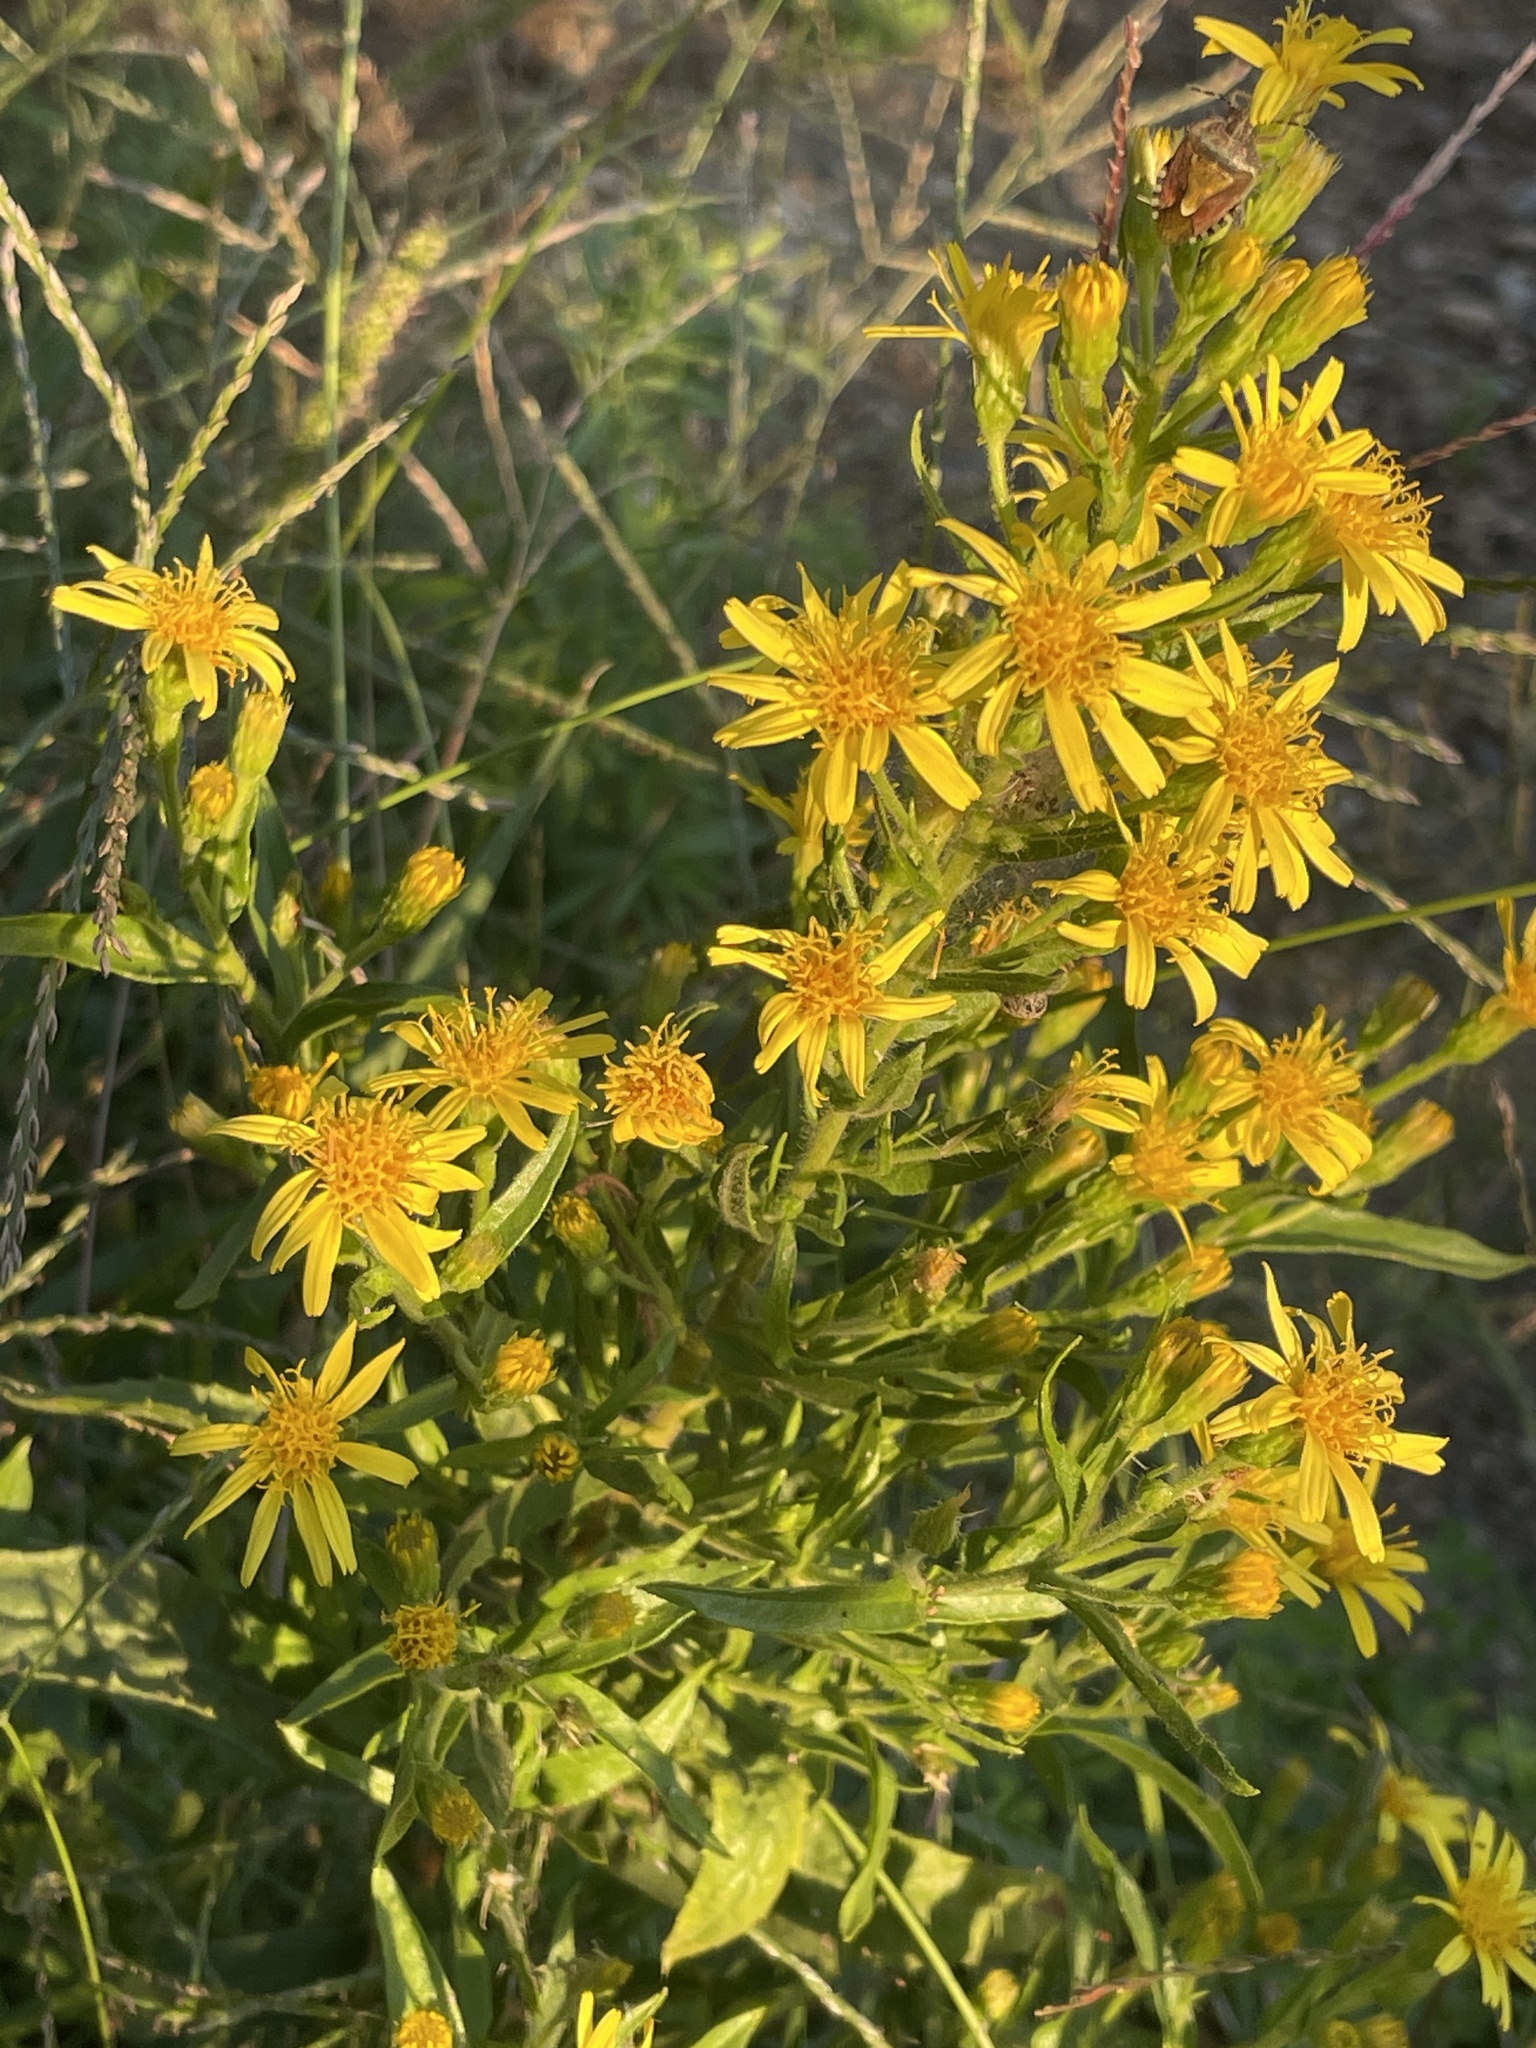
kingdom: Plantae
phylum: Tracheophyta
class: Magnoliopsida
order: Asterales
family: Asteraceae
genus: Dittrichia
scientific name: Dittrichia viscosa
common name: Woody fleabane
